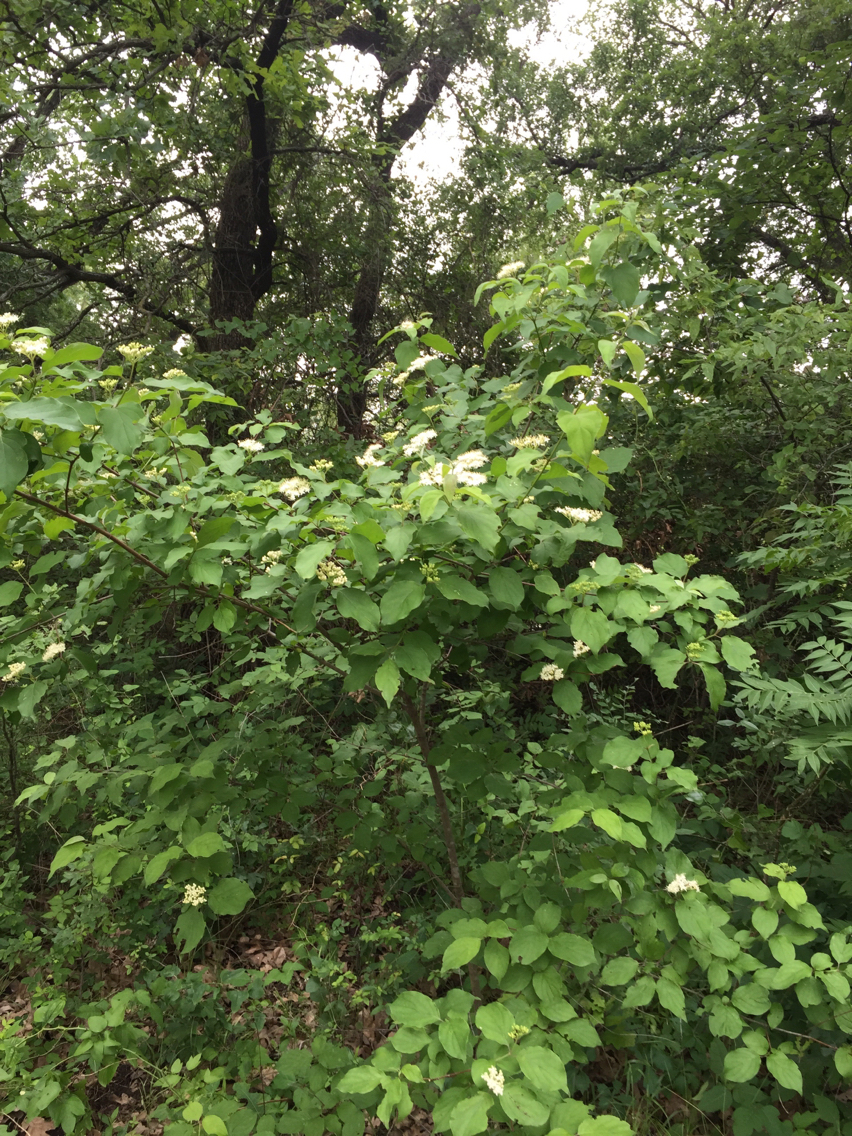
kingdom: Plantae
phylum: Tracheophyta
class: Magnoliopsida
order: Cornales
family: Cornaceae
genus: Cornus
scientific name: Cornus drummondii
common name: Rough-leaf dogwood
